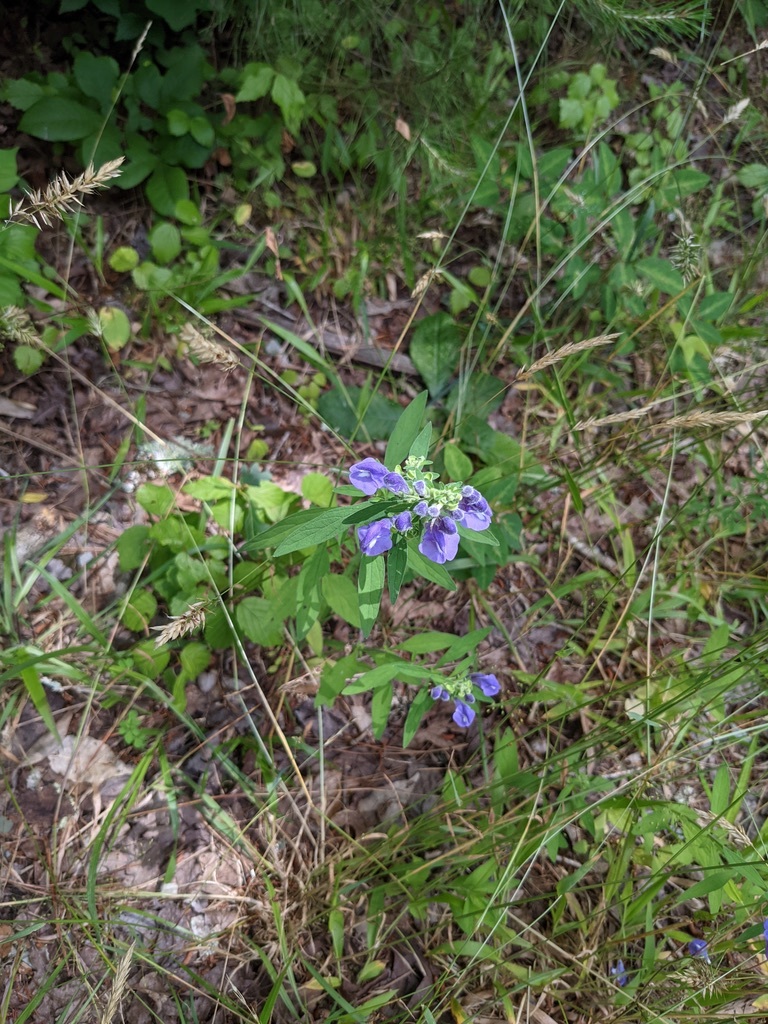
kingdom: Plantae
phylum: Tracheophyta
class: Magnoliopsida
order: Lamiales
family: Lamiaceae
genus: Scutellaria
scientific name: Scutellaria integrifolia
